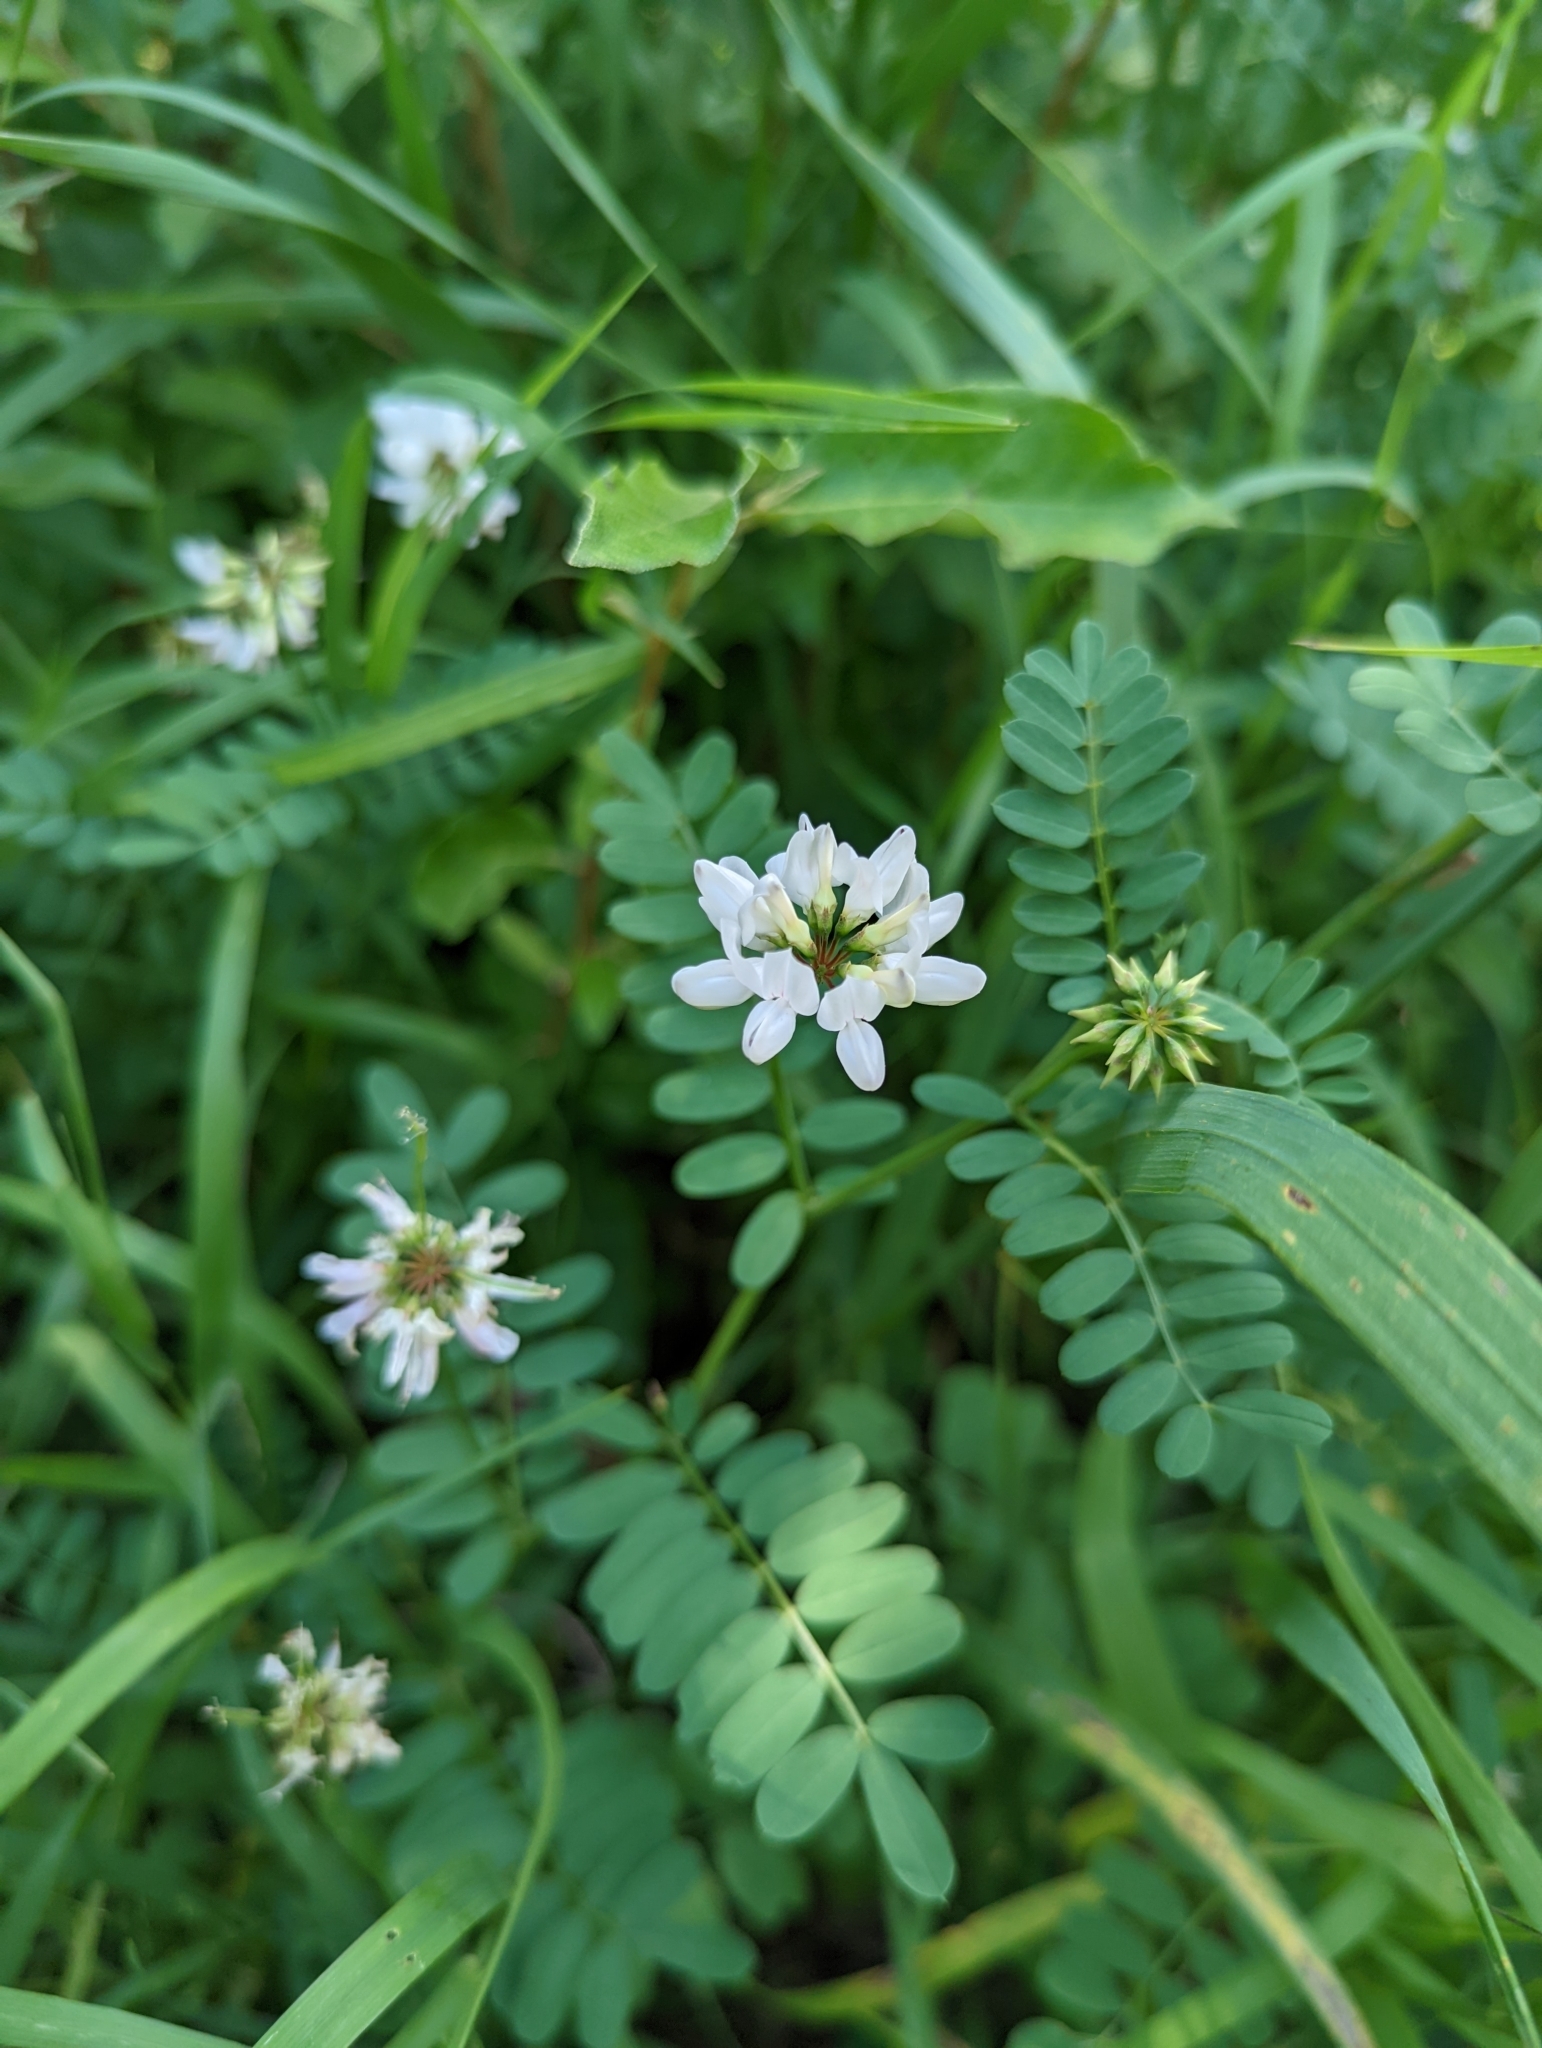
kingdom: Plantae
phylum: Tracheophyta
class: Magnoliopsida
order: Fabales
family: Fabaceae
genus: Coronilla
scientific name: Coronilla varia
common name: Crownvetch
